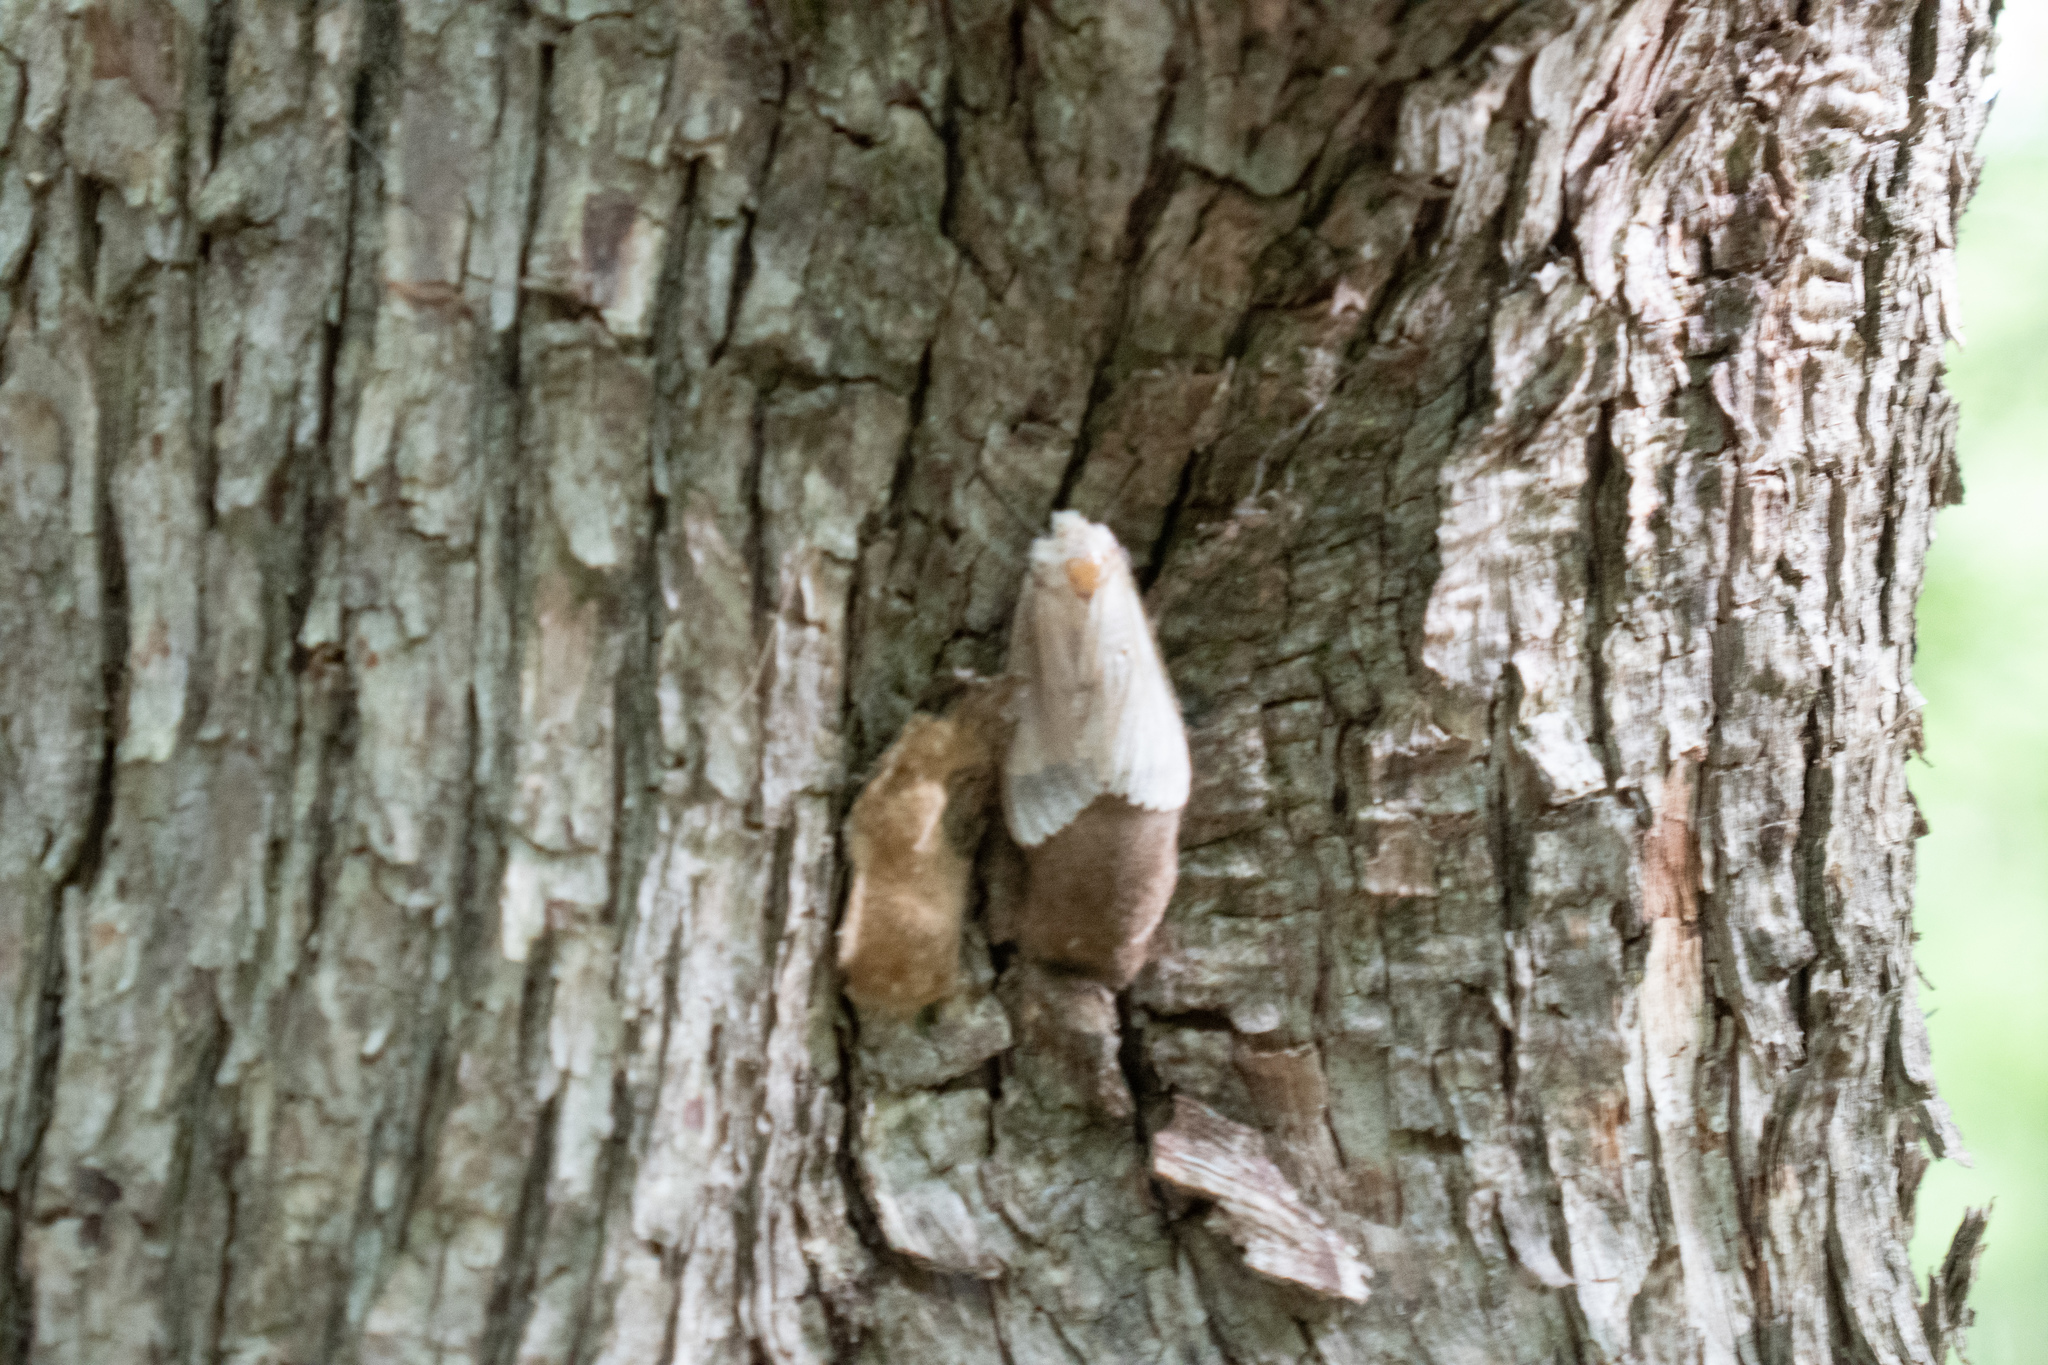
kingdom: Animalia
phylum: Arthropoda
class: Insecta
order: Lepidoptera
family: Erebidae
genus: Lymantria
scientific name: Lymantria dispar
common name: Gypsy moth
